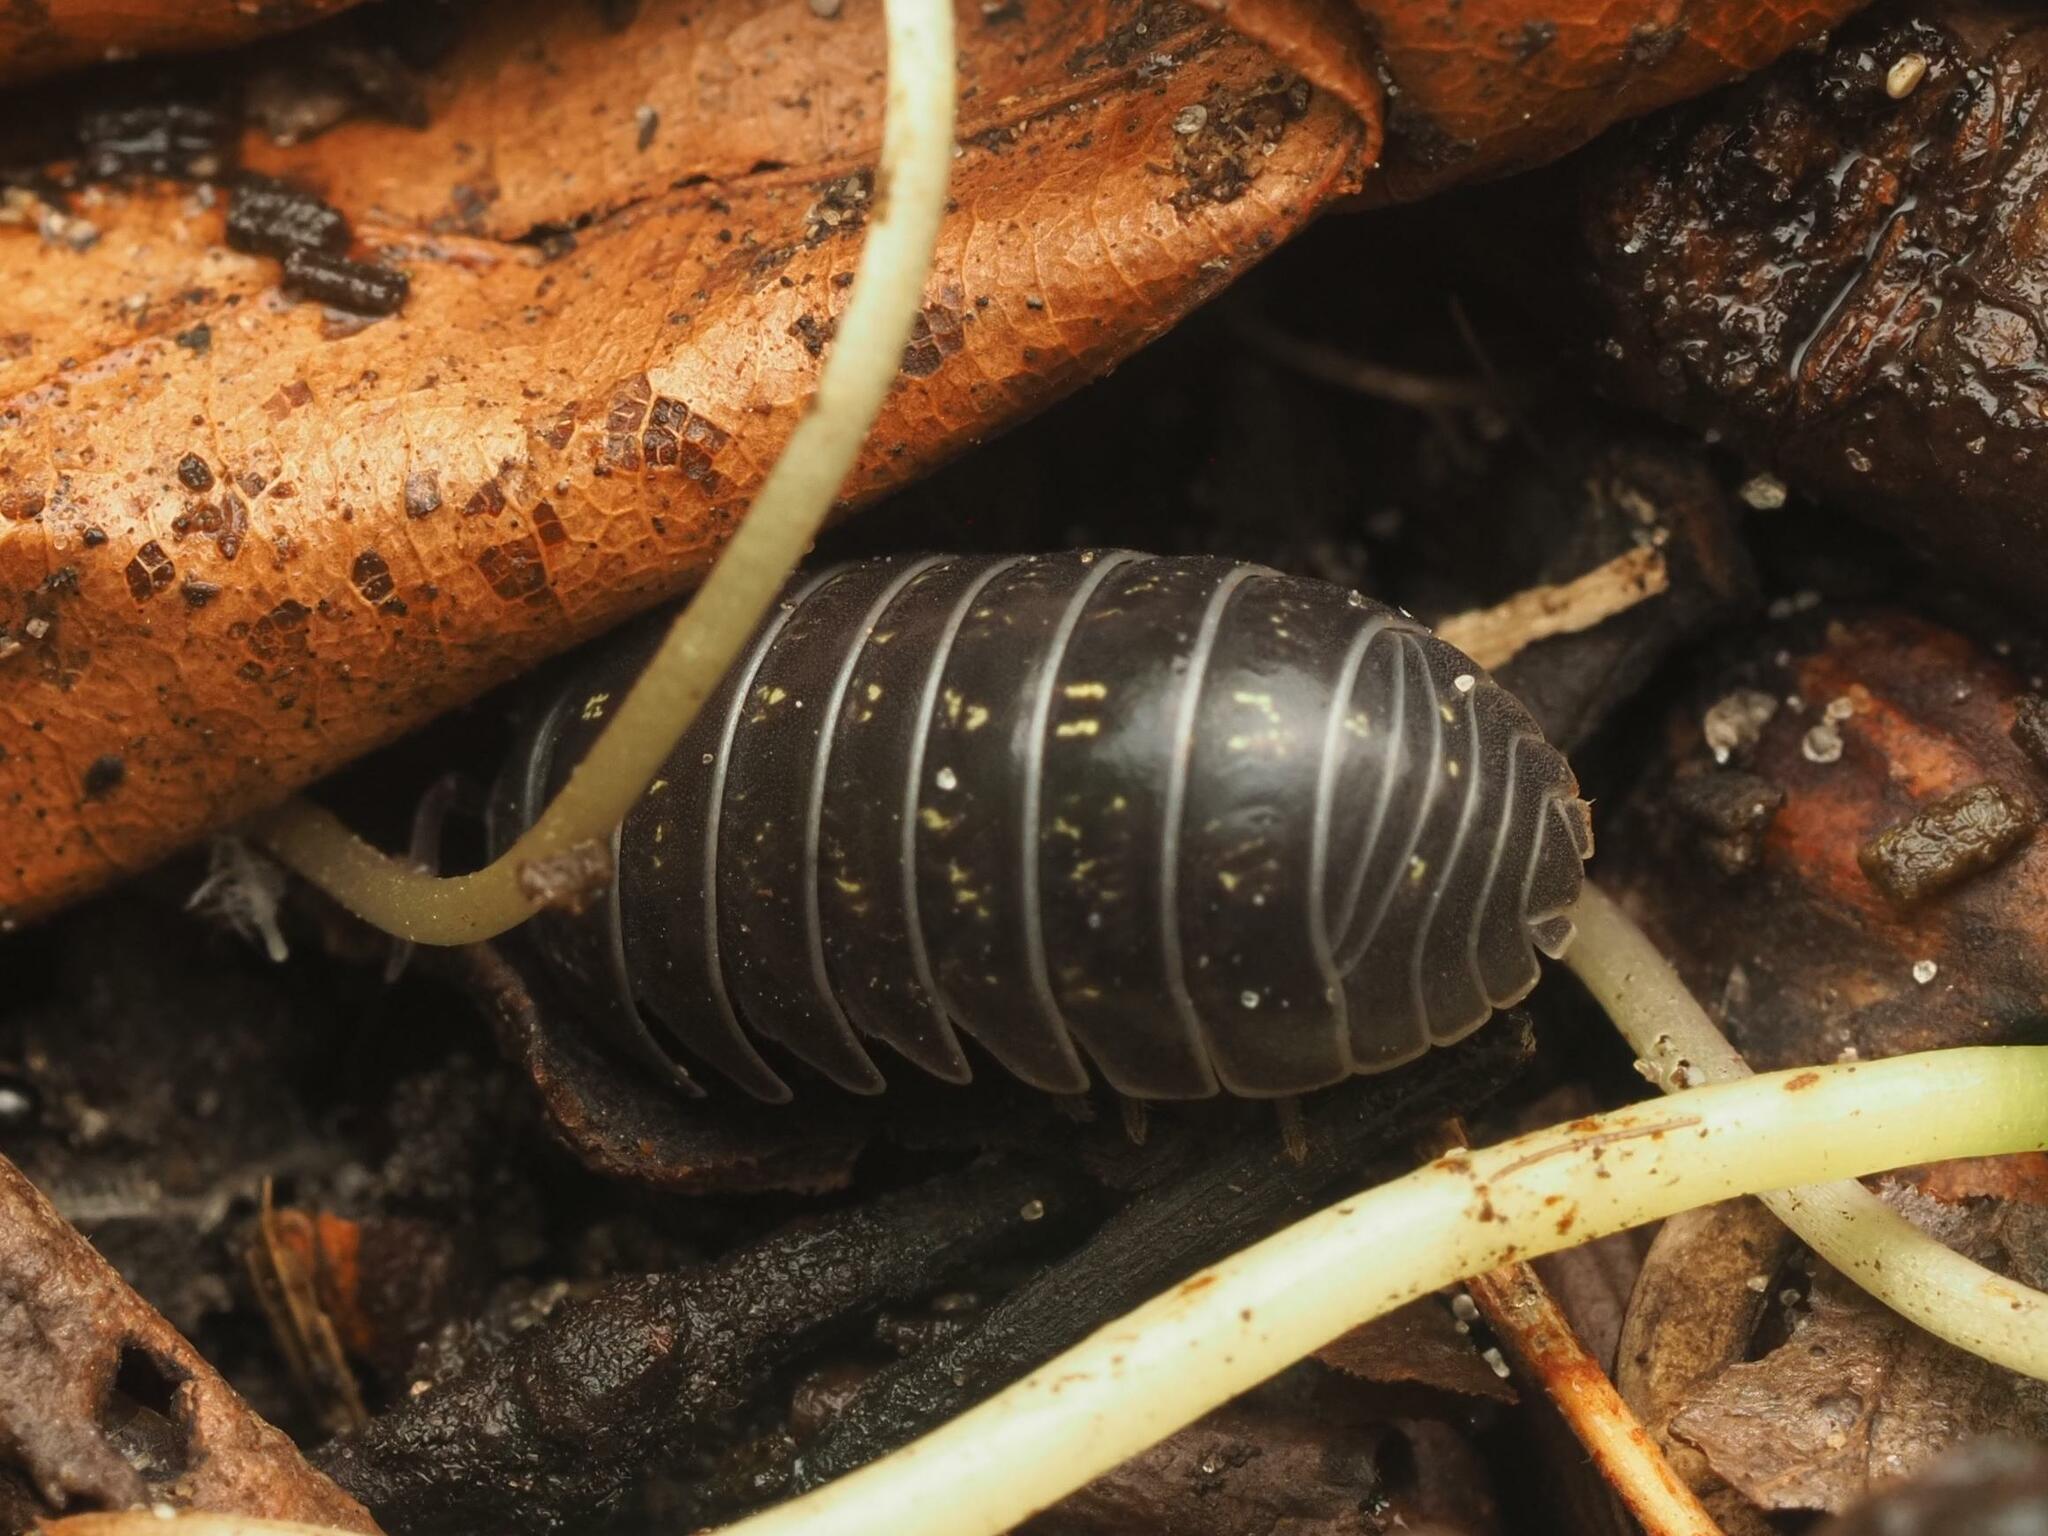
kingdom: Animalia
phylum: Arthropoda
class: Malacostraca
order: Isopoda
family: Armadillidiidae
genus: Armadillidium
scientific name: Armadillidium vulgare
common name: Common pill woodlouse
